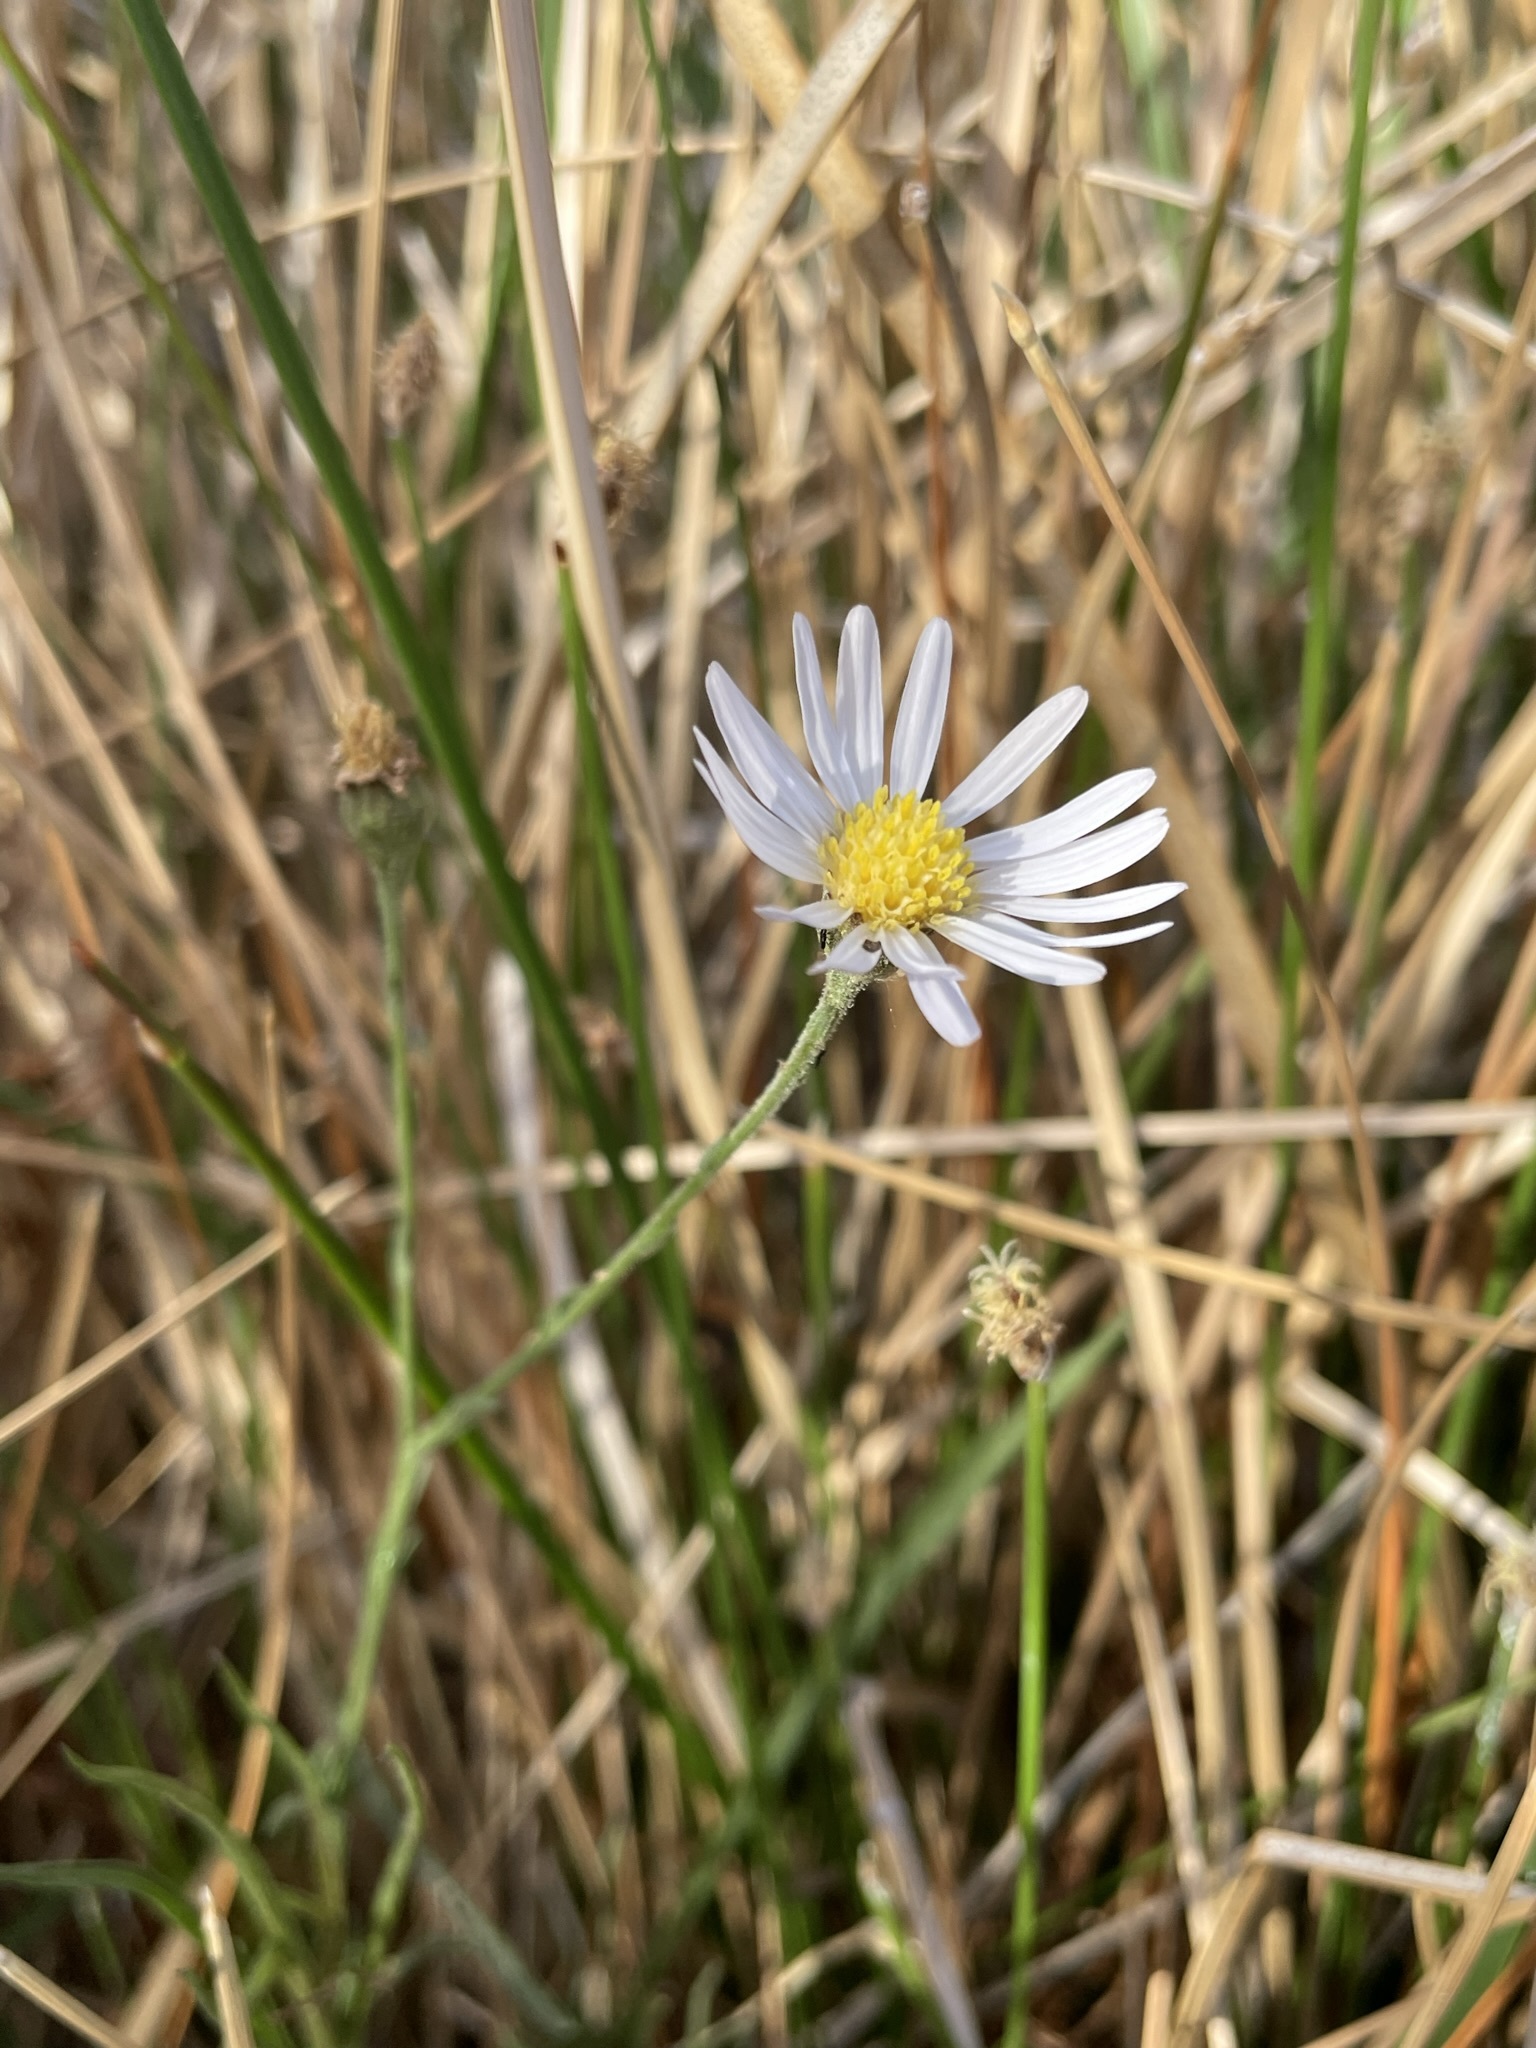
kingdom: Plantae
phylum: Tracheophyta
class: Magnoliopsida
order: Asterales
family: Asteraceae
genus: Almutaster
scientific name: Almutaster pauciflorus
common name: Alkaline aster
